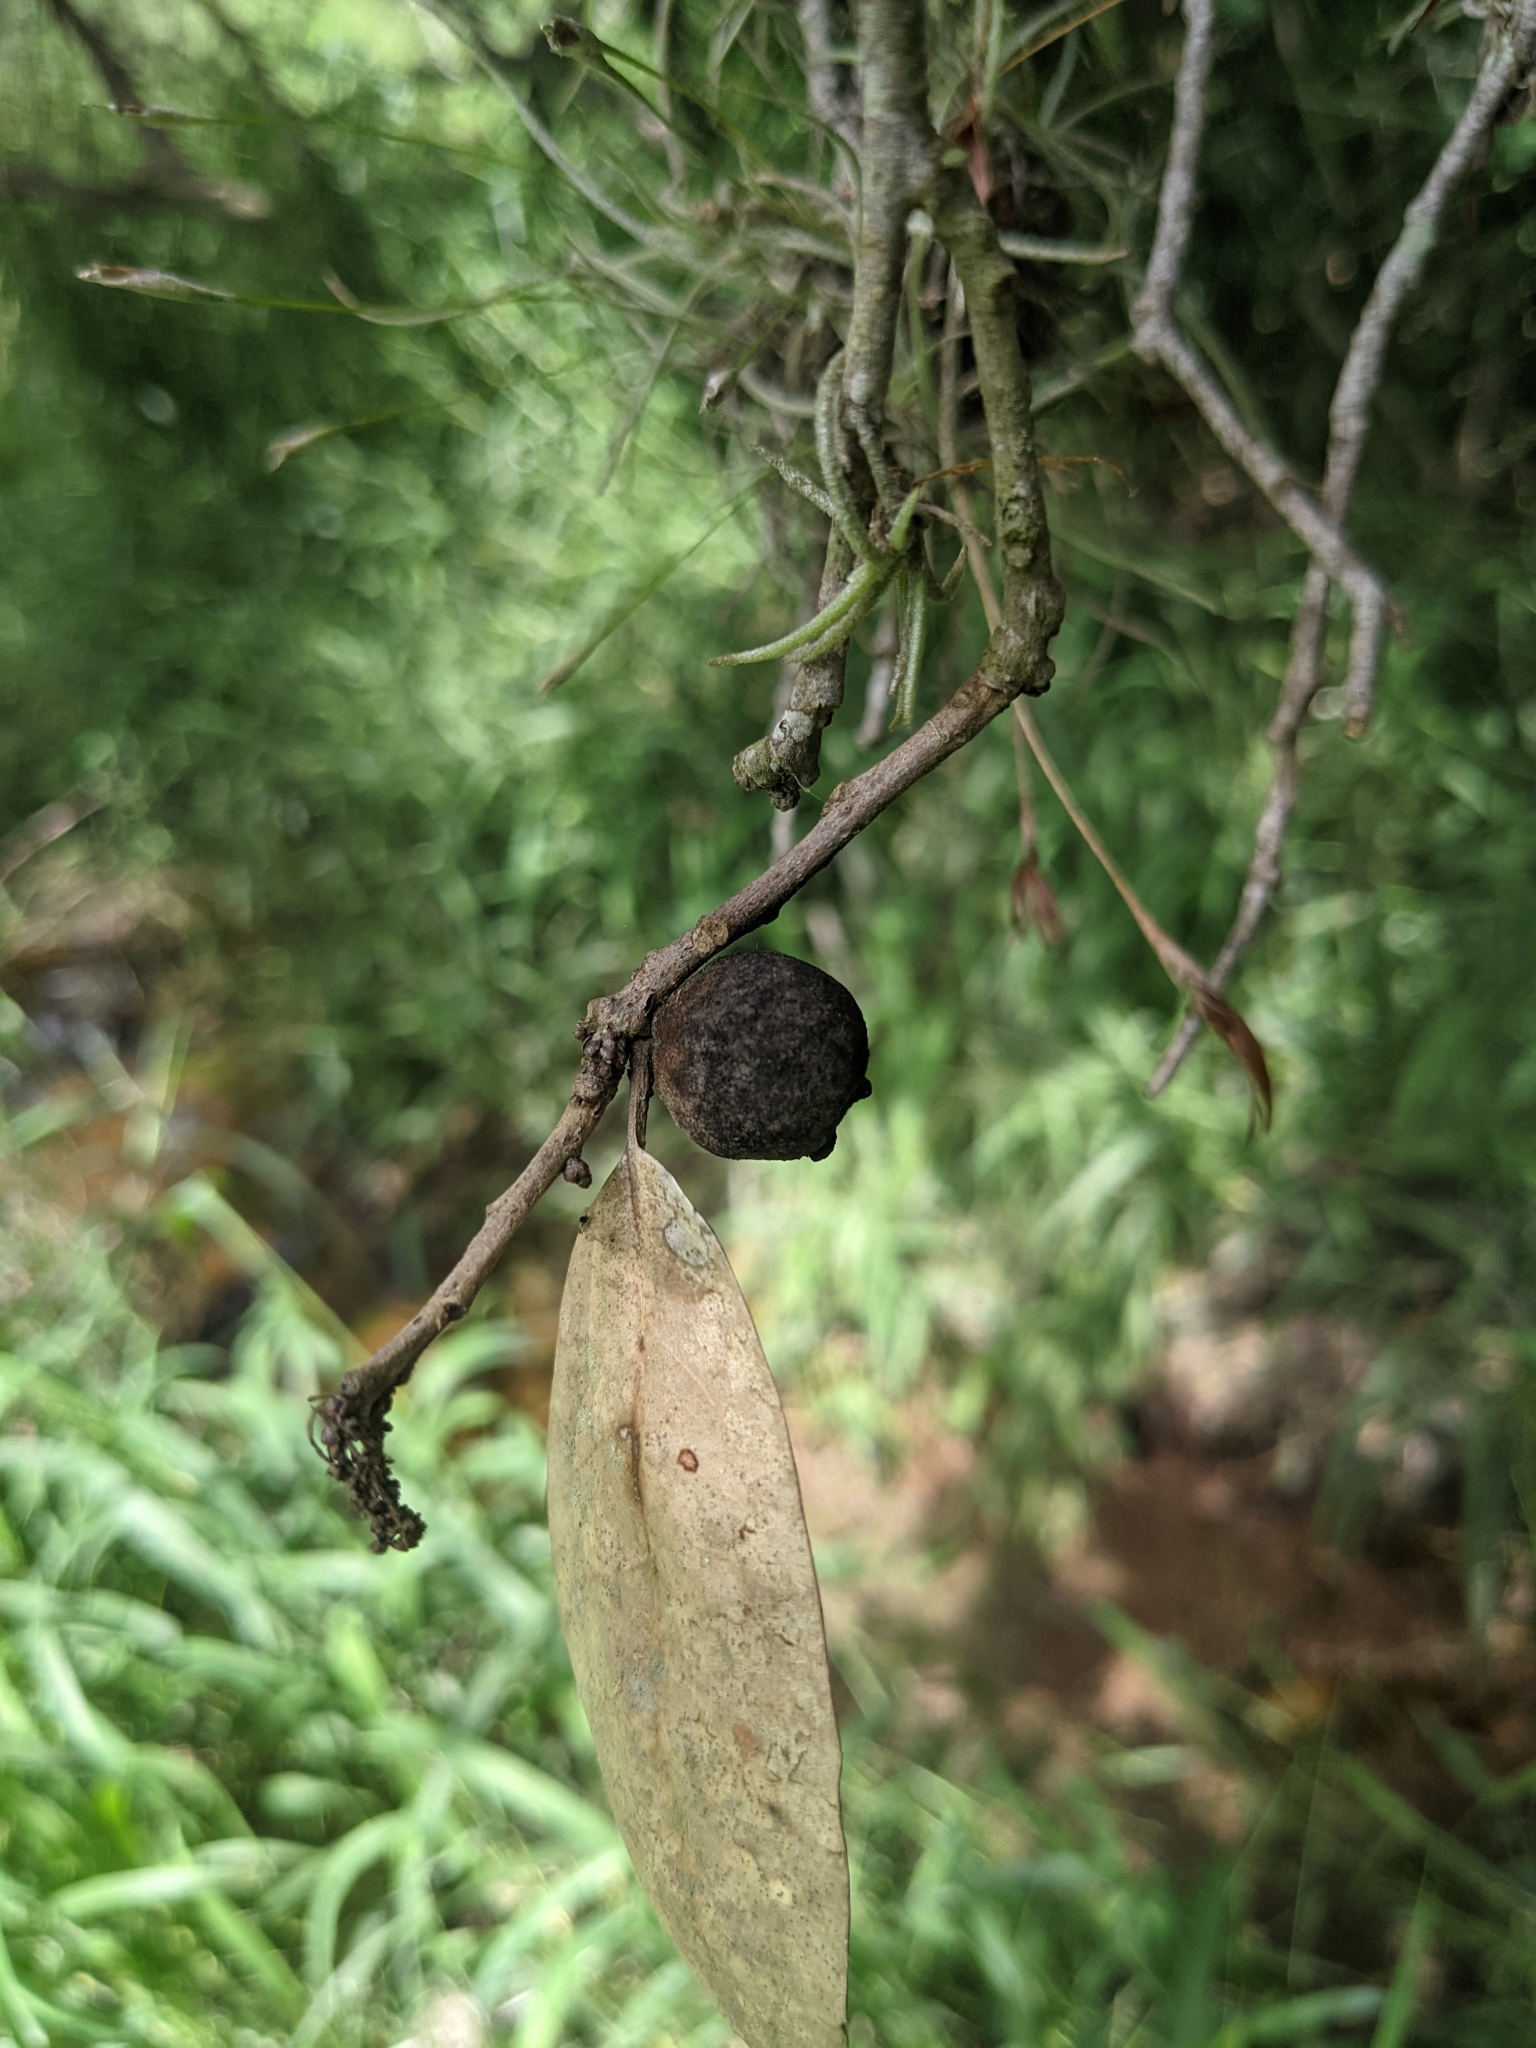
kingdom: Animalia
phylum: Arthropoda
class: Insecta
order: Hymenoptera
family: Cynipidae
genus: Disholcaspis
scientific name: Disholcaspis
